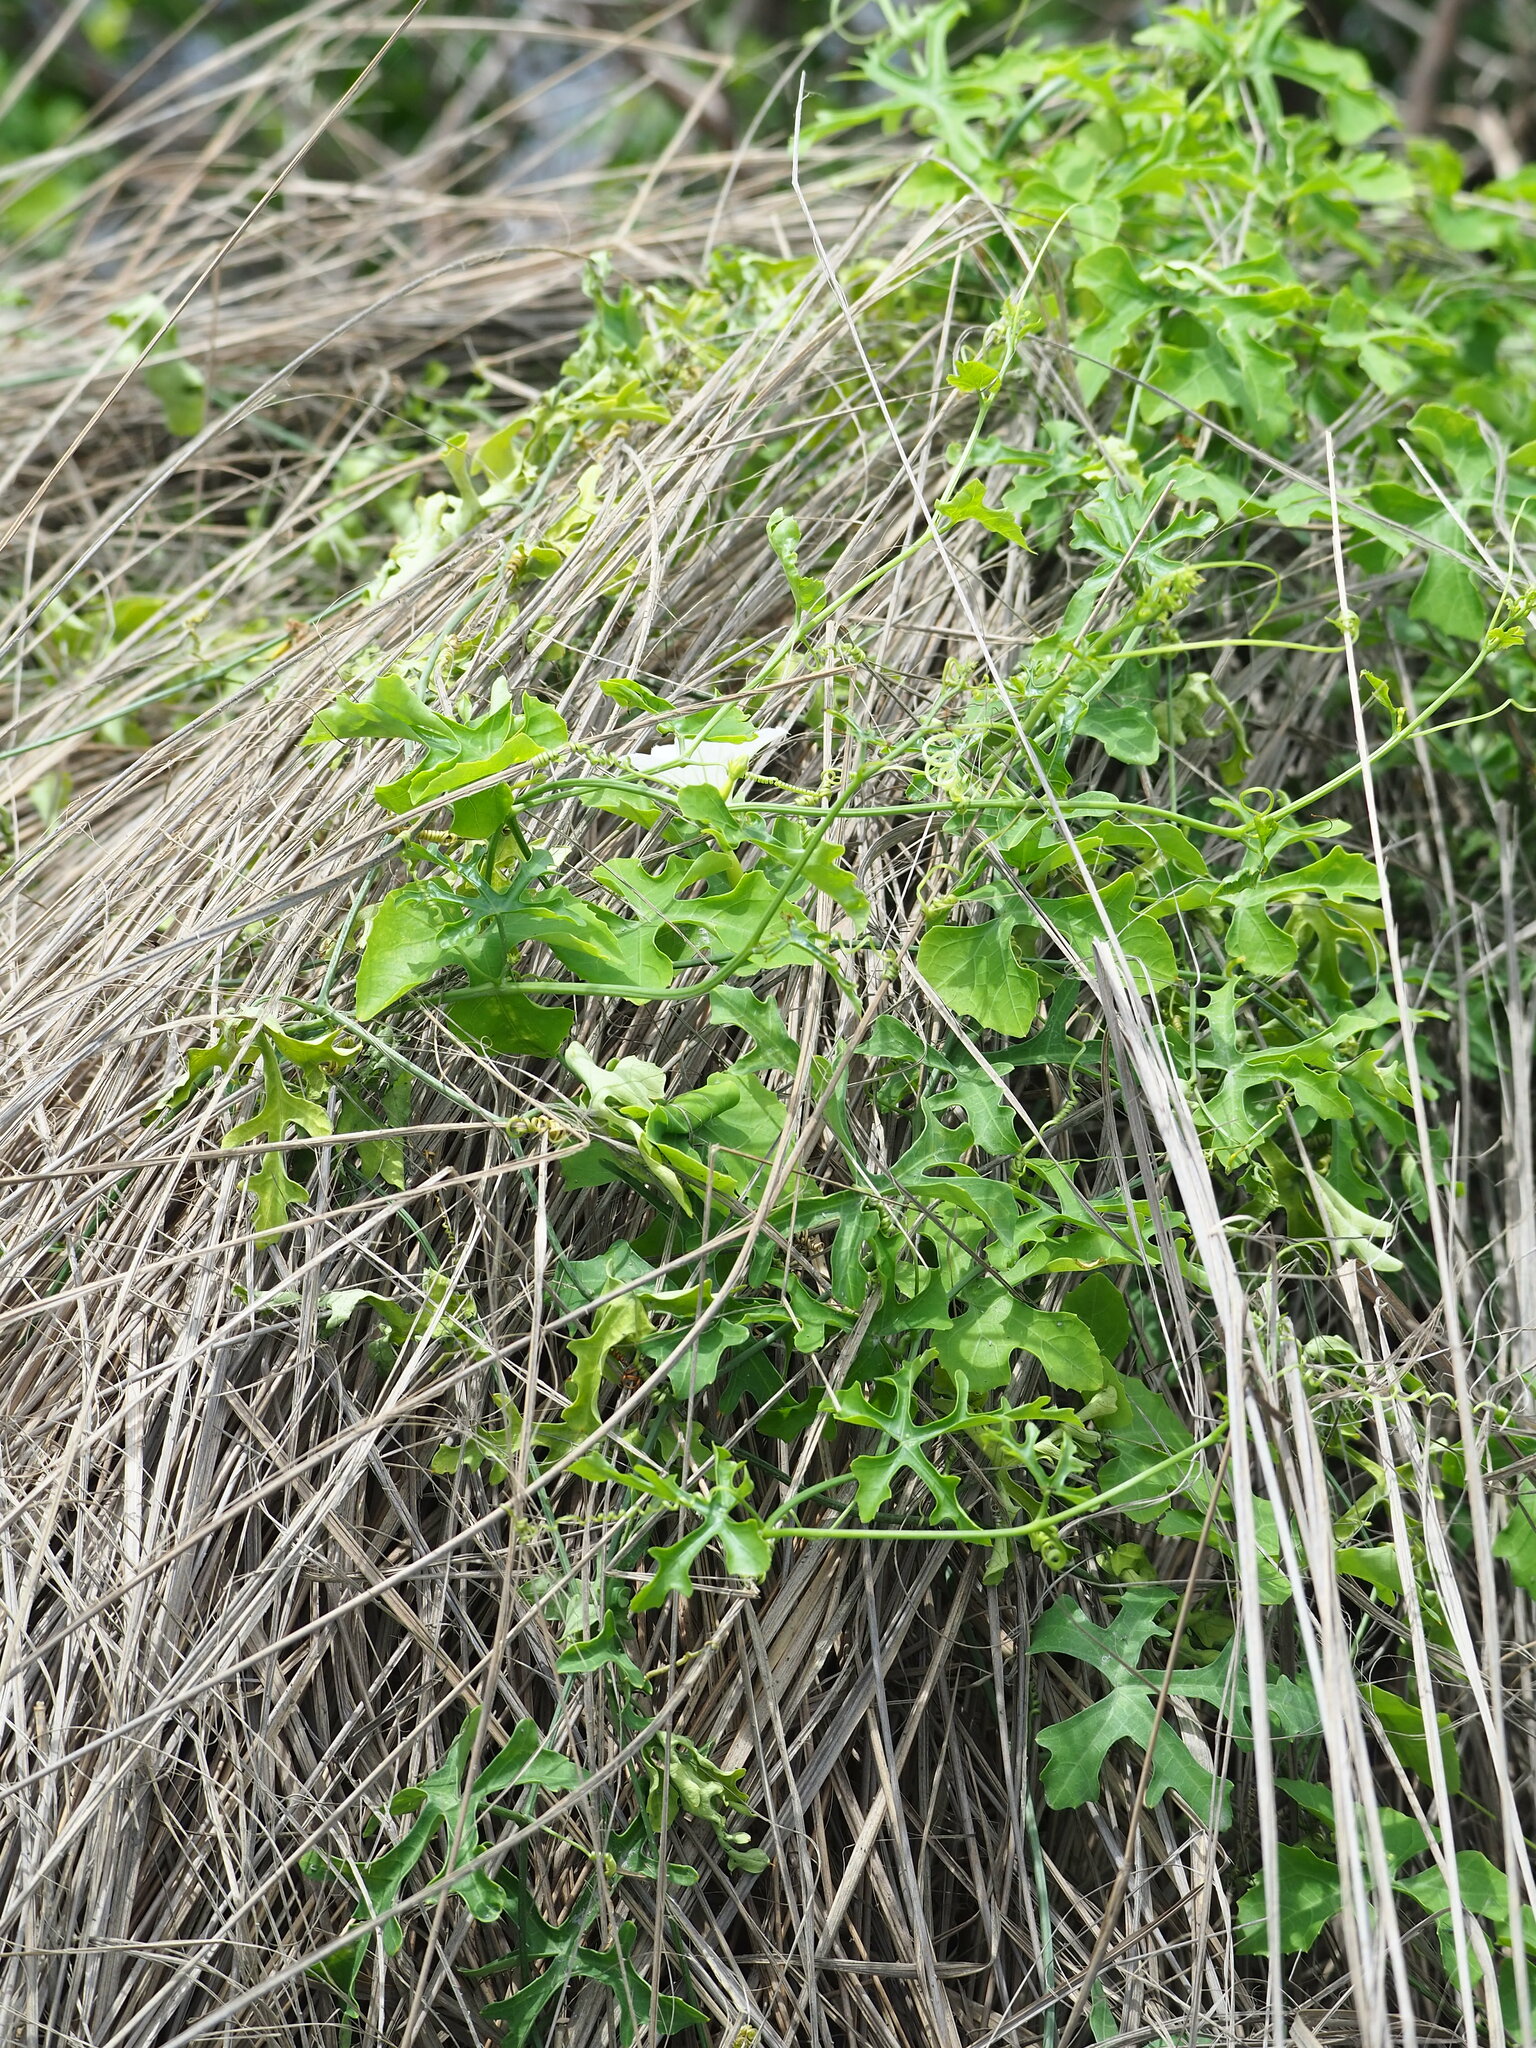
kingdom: Plantae
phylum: Tracheophyta
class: Magnoliopsida
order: Cucurbitales
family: Cucurbitaceae
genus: Coccinia
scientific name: Coccinia grandis
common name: Ivy gourd
